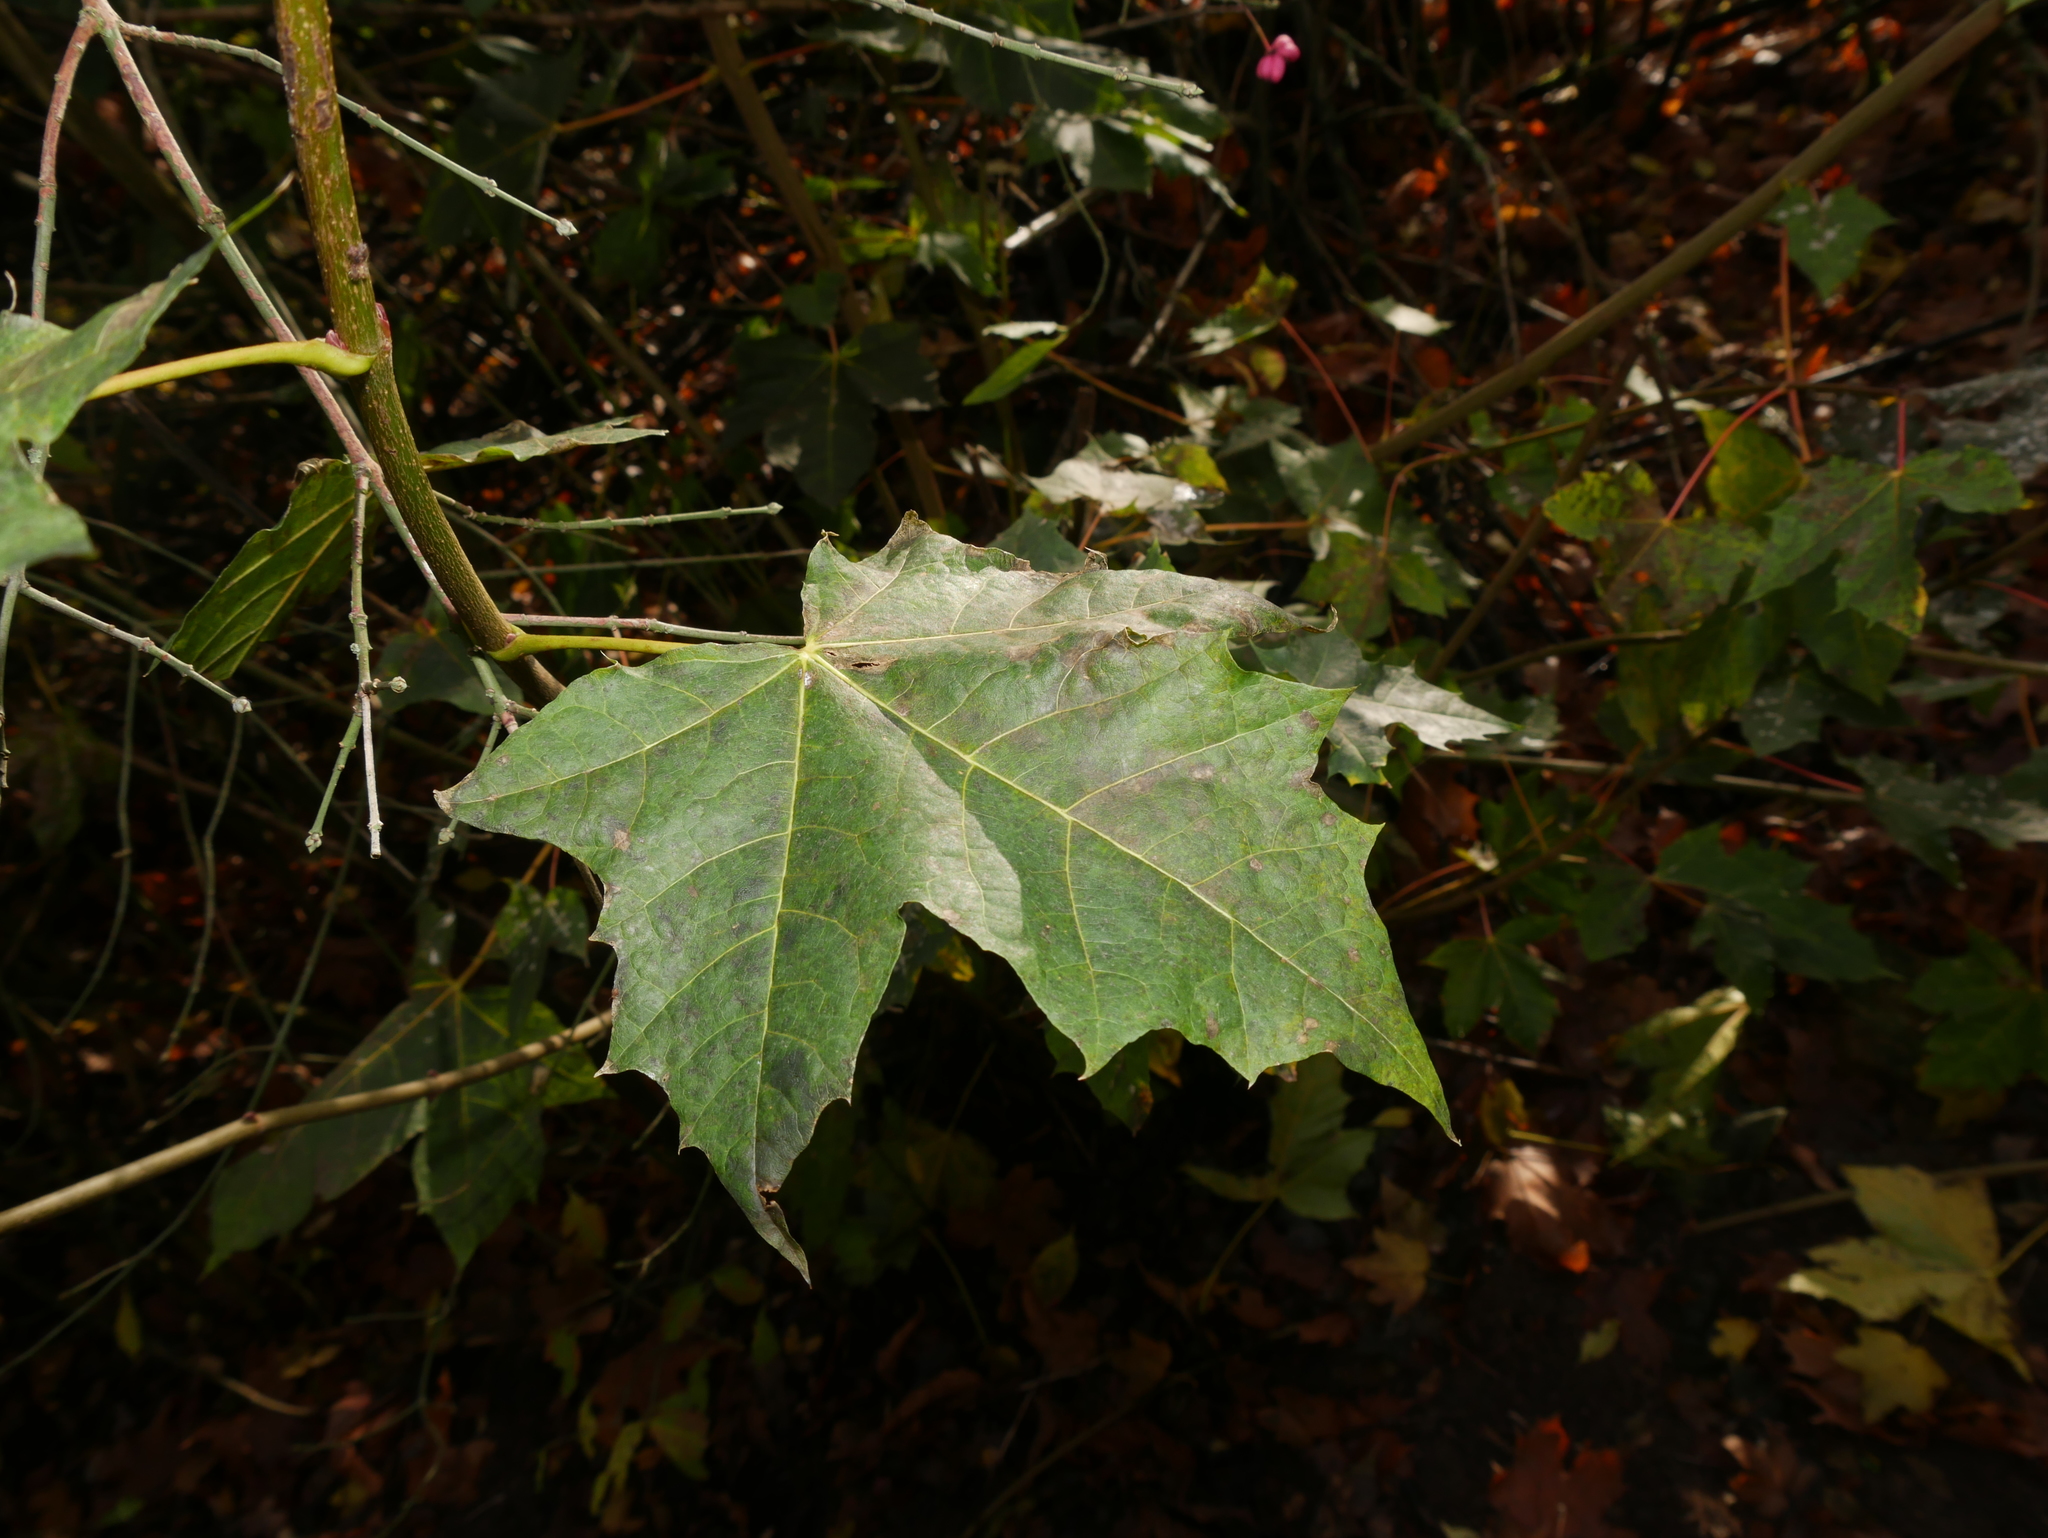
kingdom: Plantae
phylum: Tracheophyta
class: Magnoliopsida
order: Sapindales
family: Sapindaceae
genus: Acer
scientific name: Acer platanoides
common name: Norway maple
